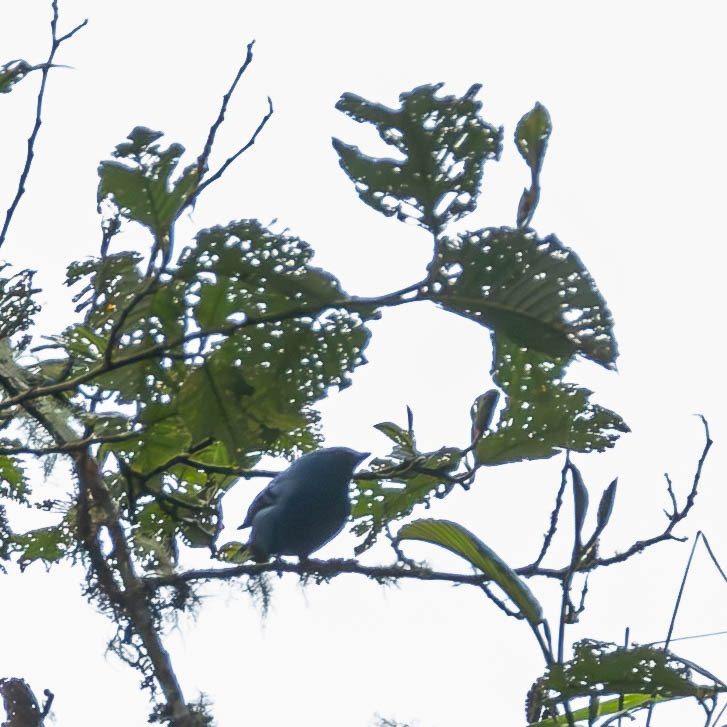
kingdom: Animalia
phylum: Chordata
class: Aves
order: Passeriformes
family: Thraupidae
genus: Tangara
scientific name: Tangara vassorii
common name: Blue-and-black tanager
